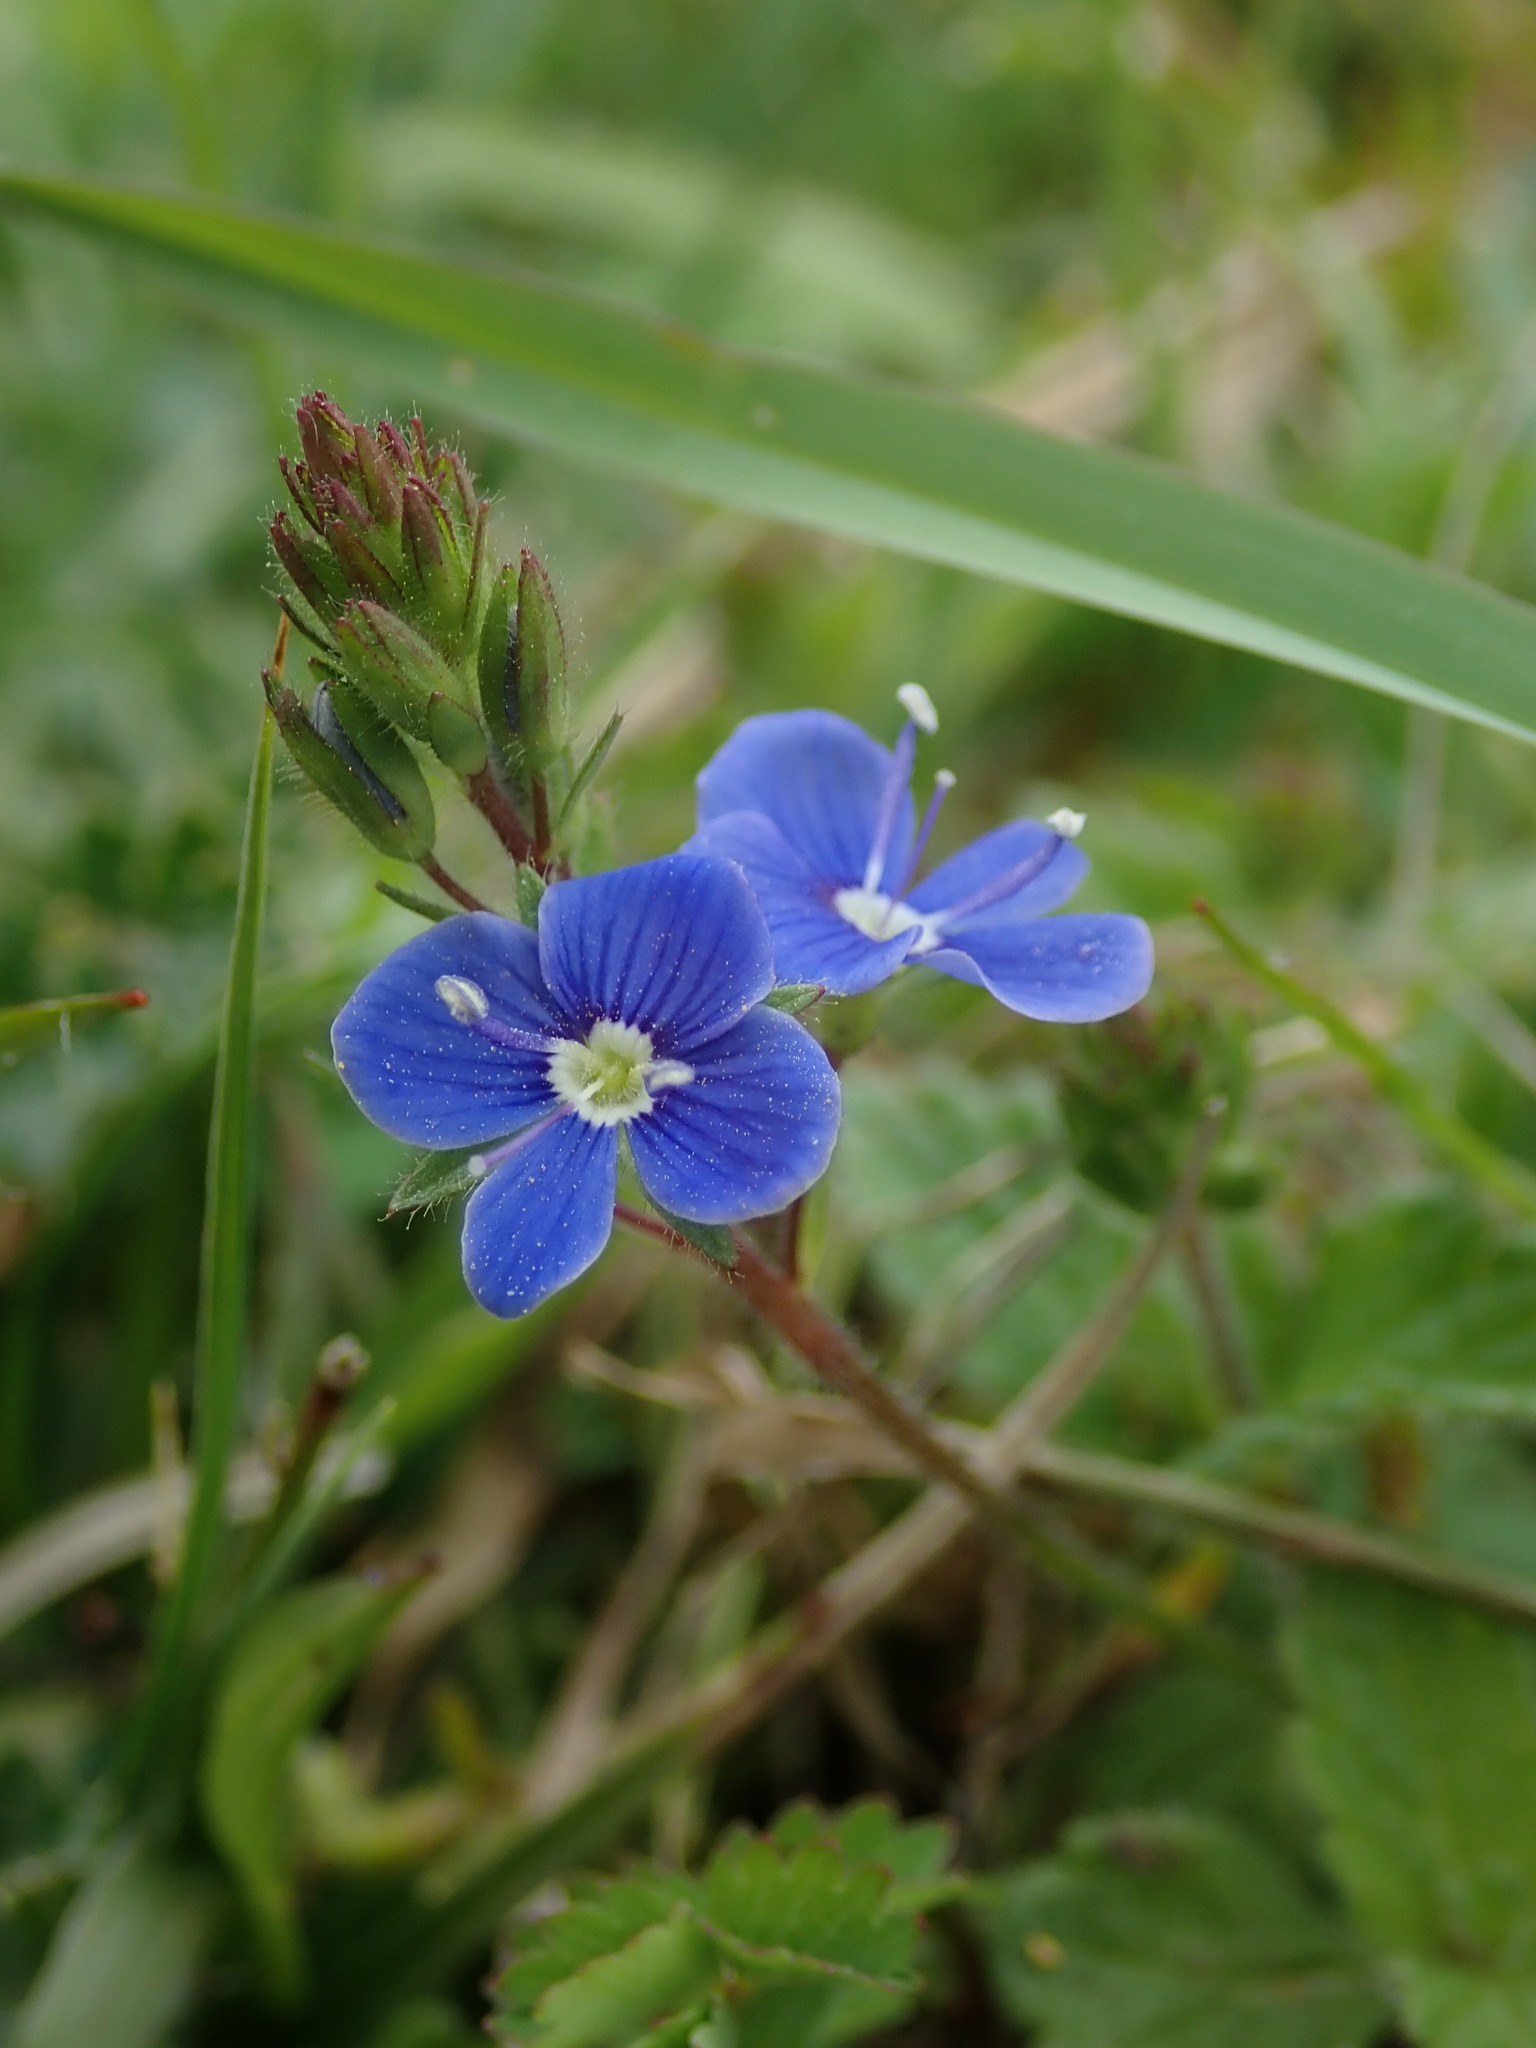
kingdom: Plantae
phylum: Tracheophyta
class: Magnoliopsida
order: Lamiales
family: Plantaginaceae
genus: Veronica
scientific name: Veronica chamaedrys
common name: Germander speedwell
